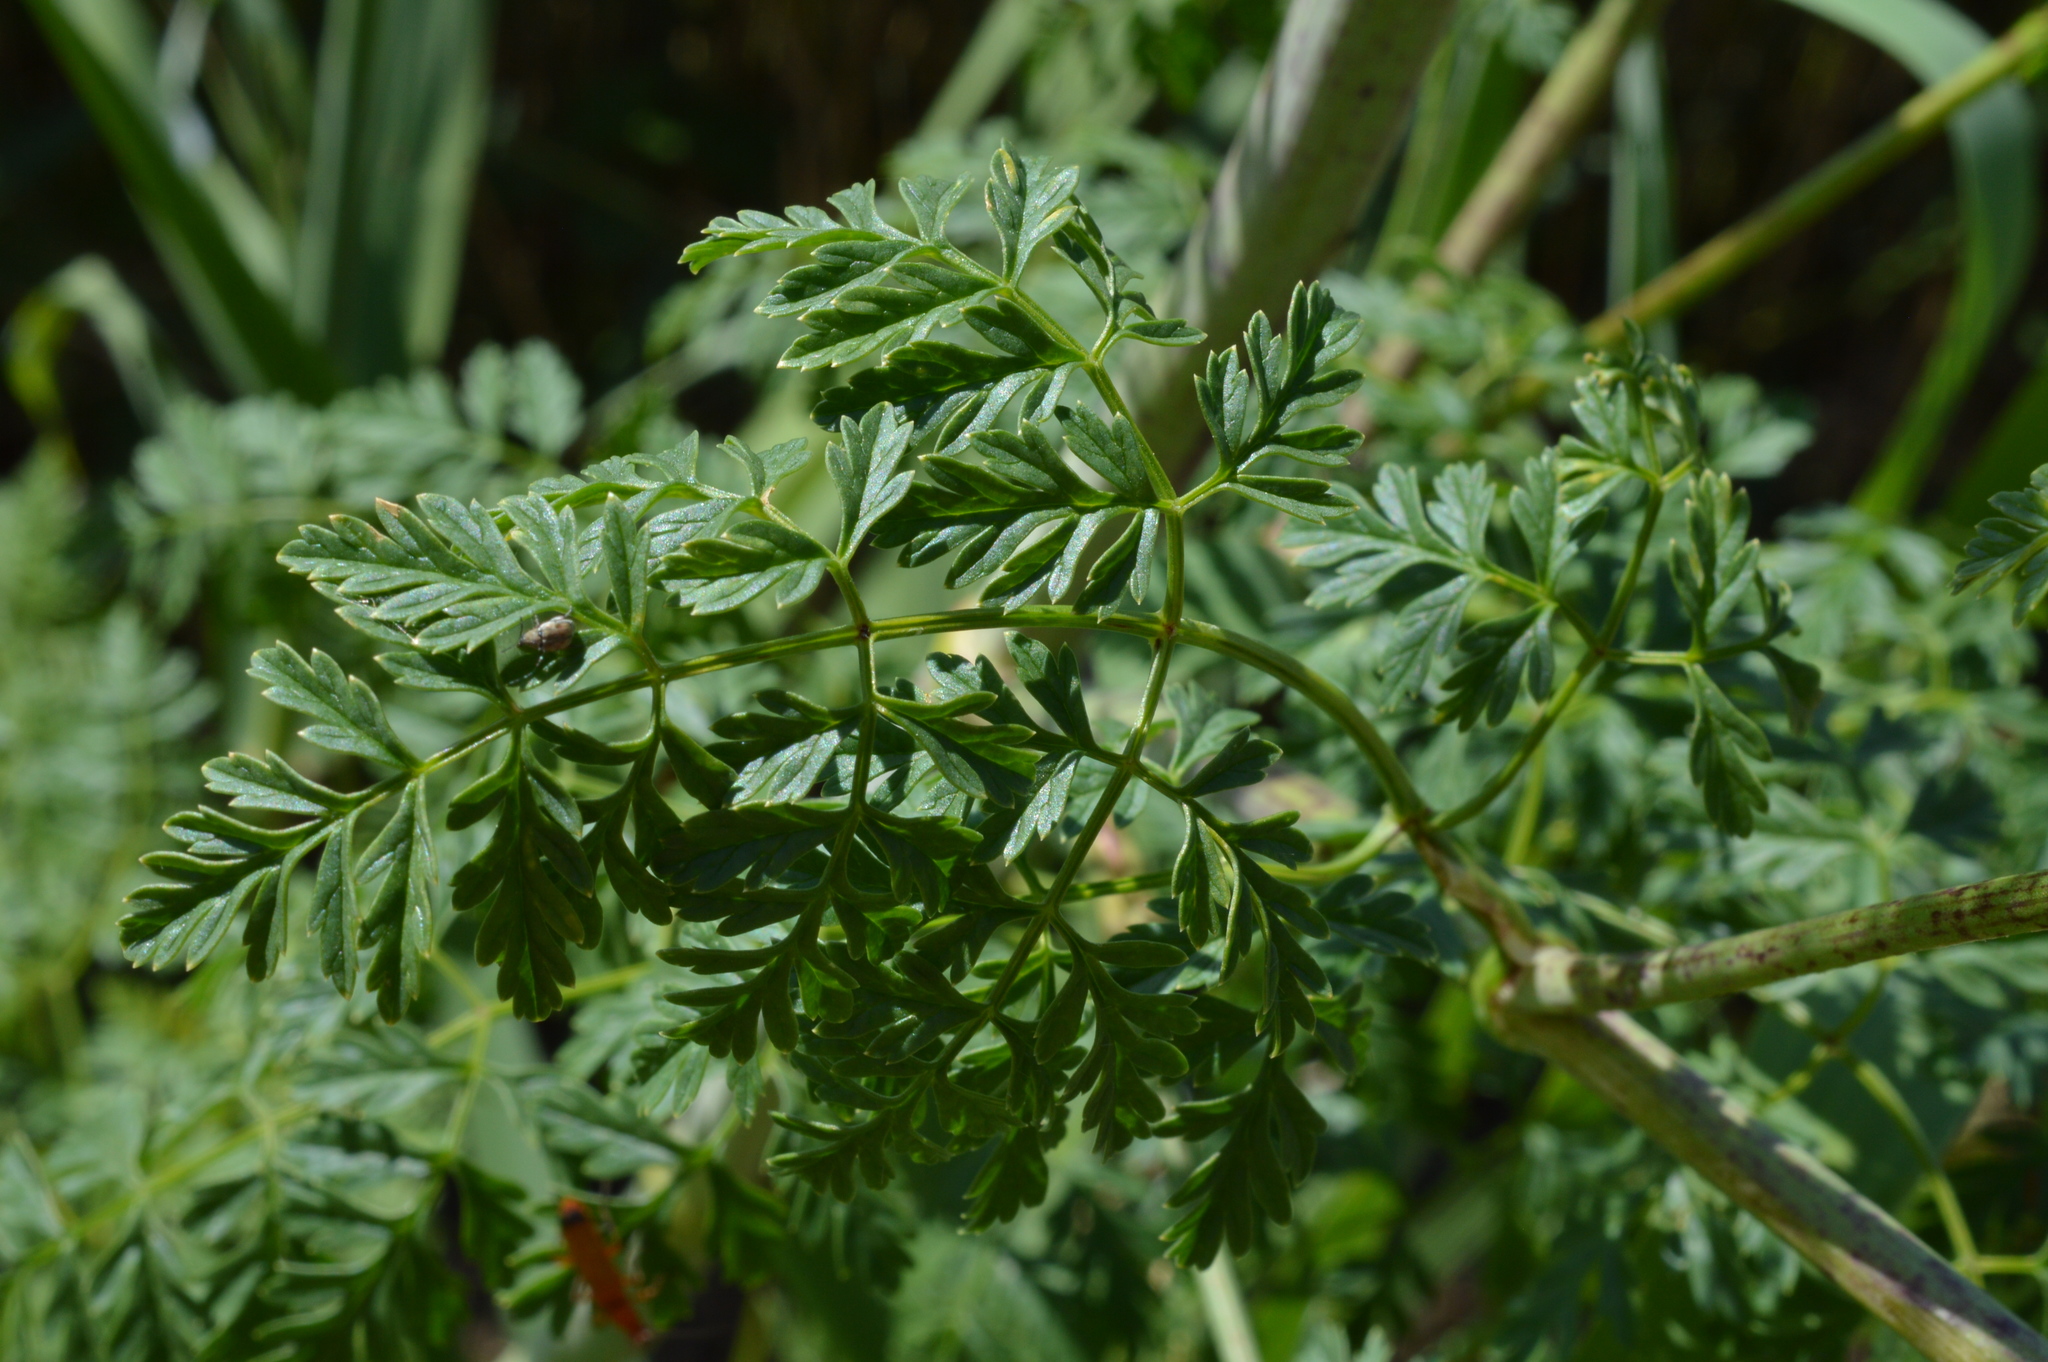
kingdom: Plantae
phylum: Tracheophyta
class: Magnoliopsida
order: Apiales
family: Apiaceae
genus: Conium
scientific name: Conium maculatum
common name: Hemlock
